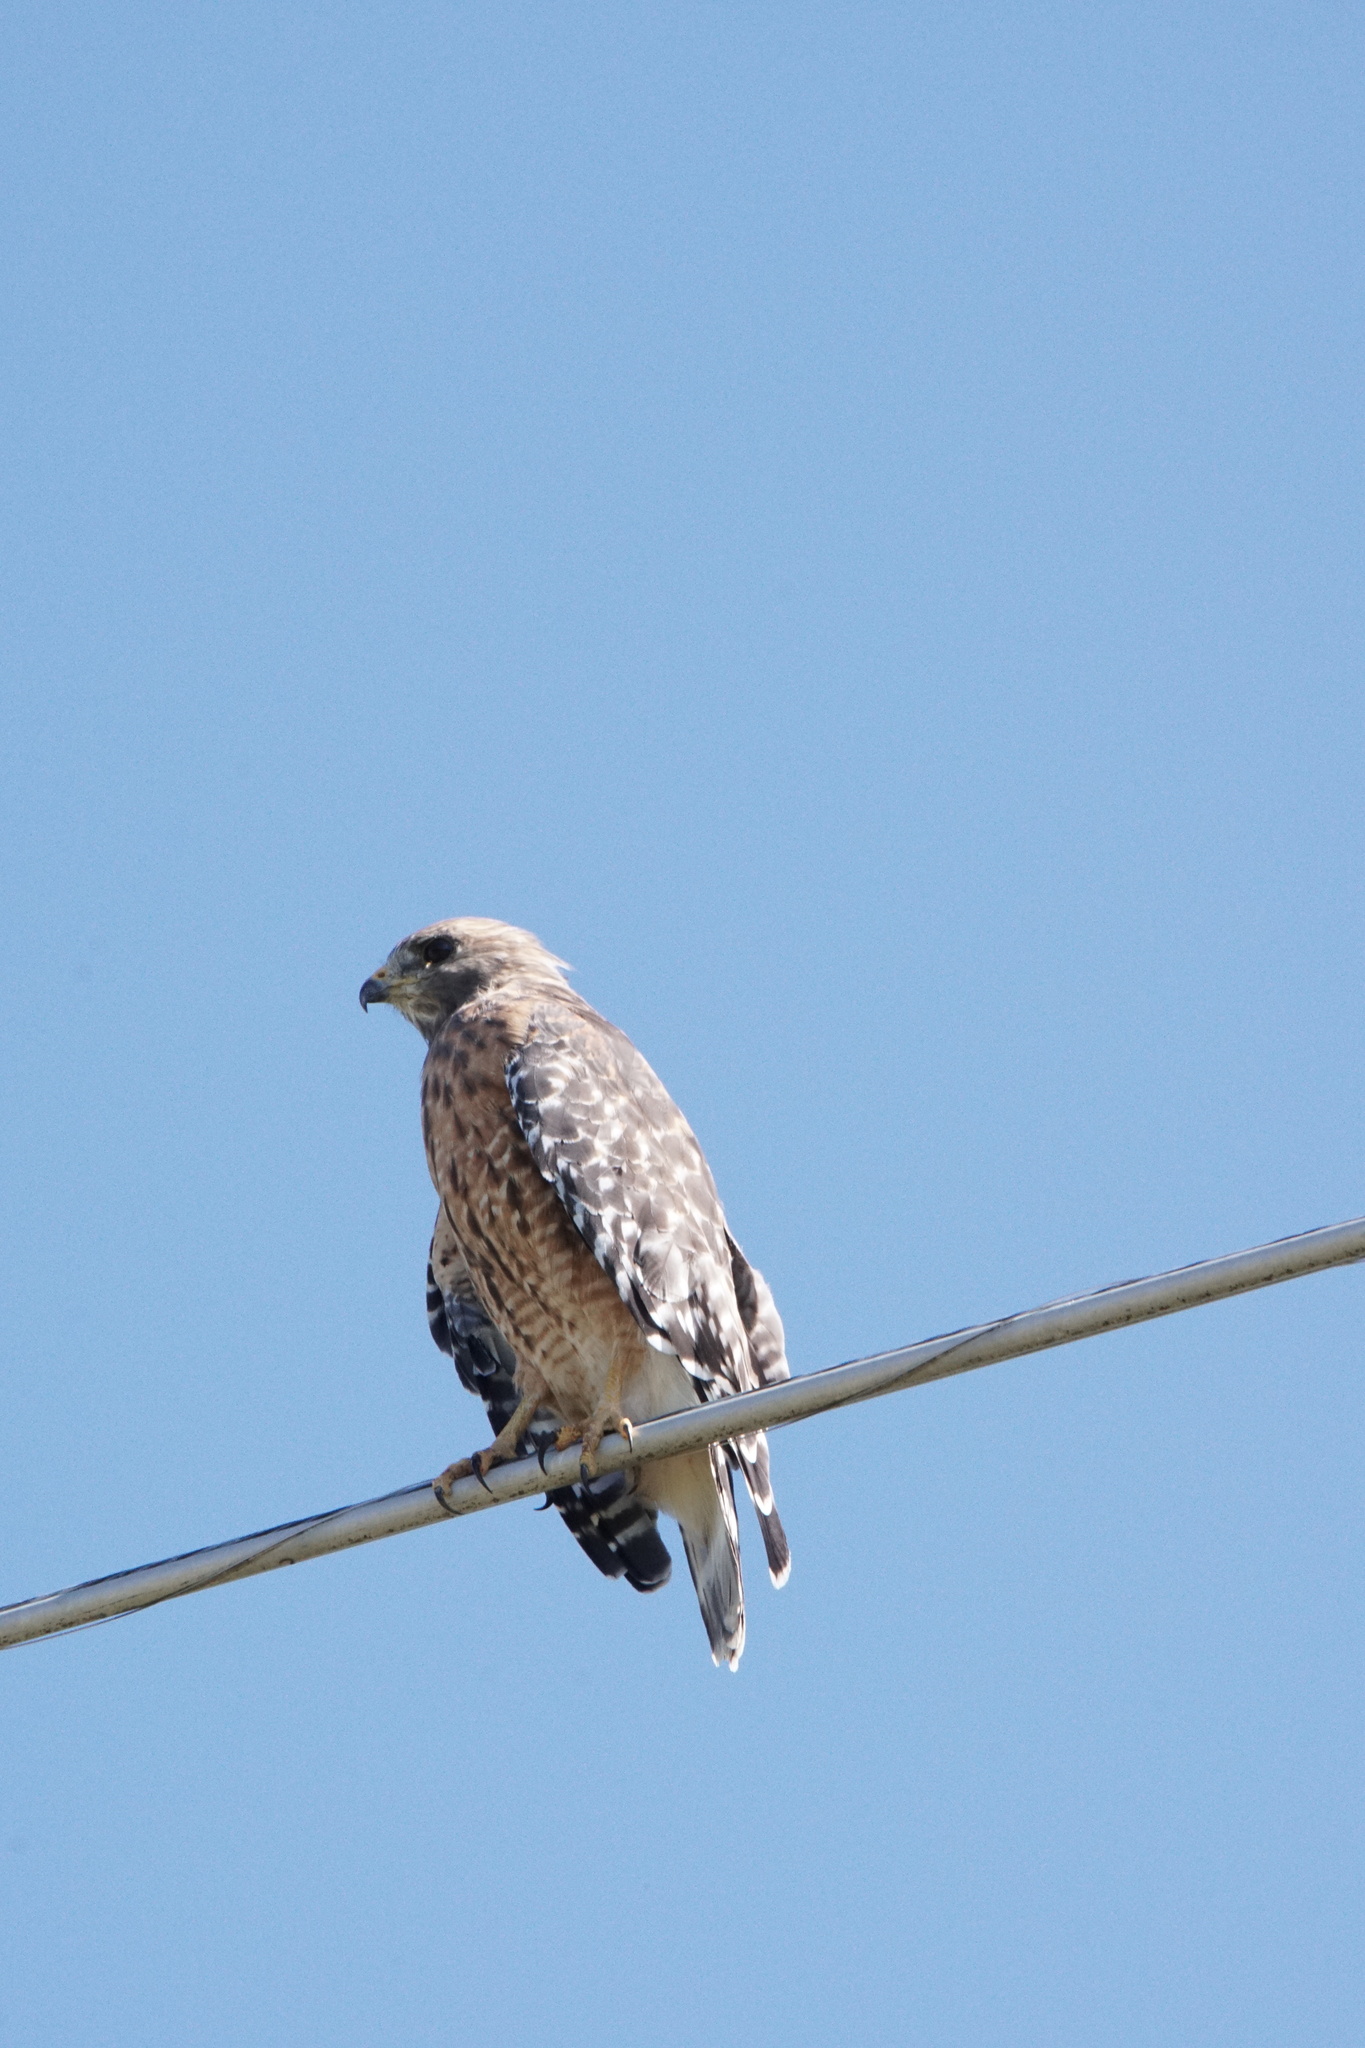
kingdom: Animalia
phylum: Chordata
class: Aves
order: Accipitriformes
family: Accipitridae
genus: Buteo
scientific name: Buteo lineatus
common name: Red-shouldered hawk
